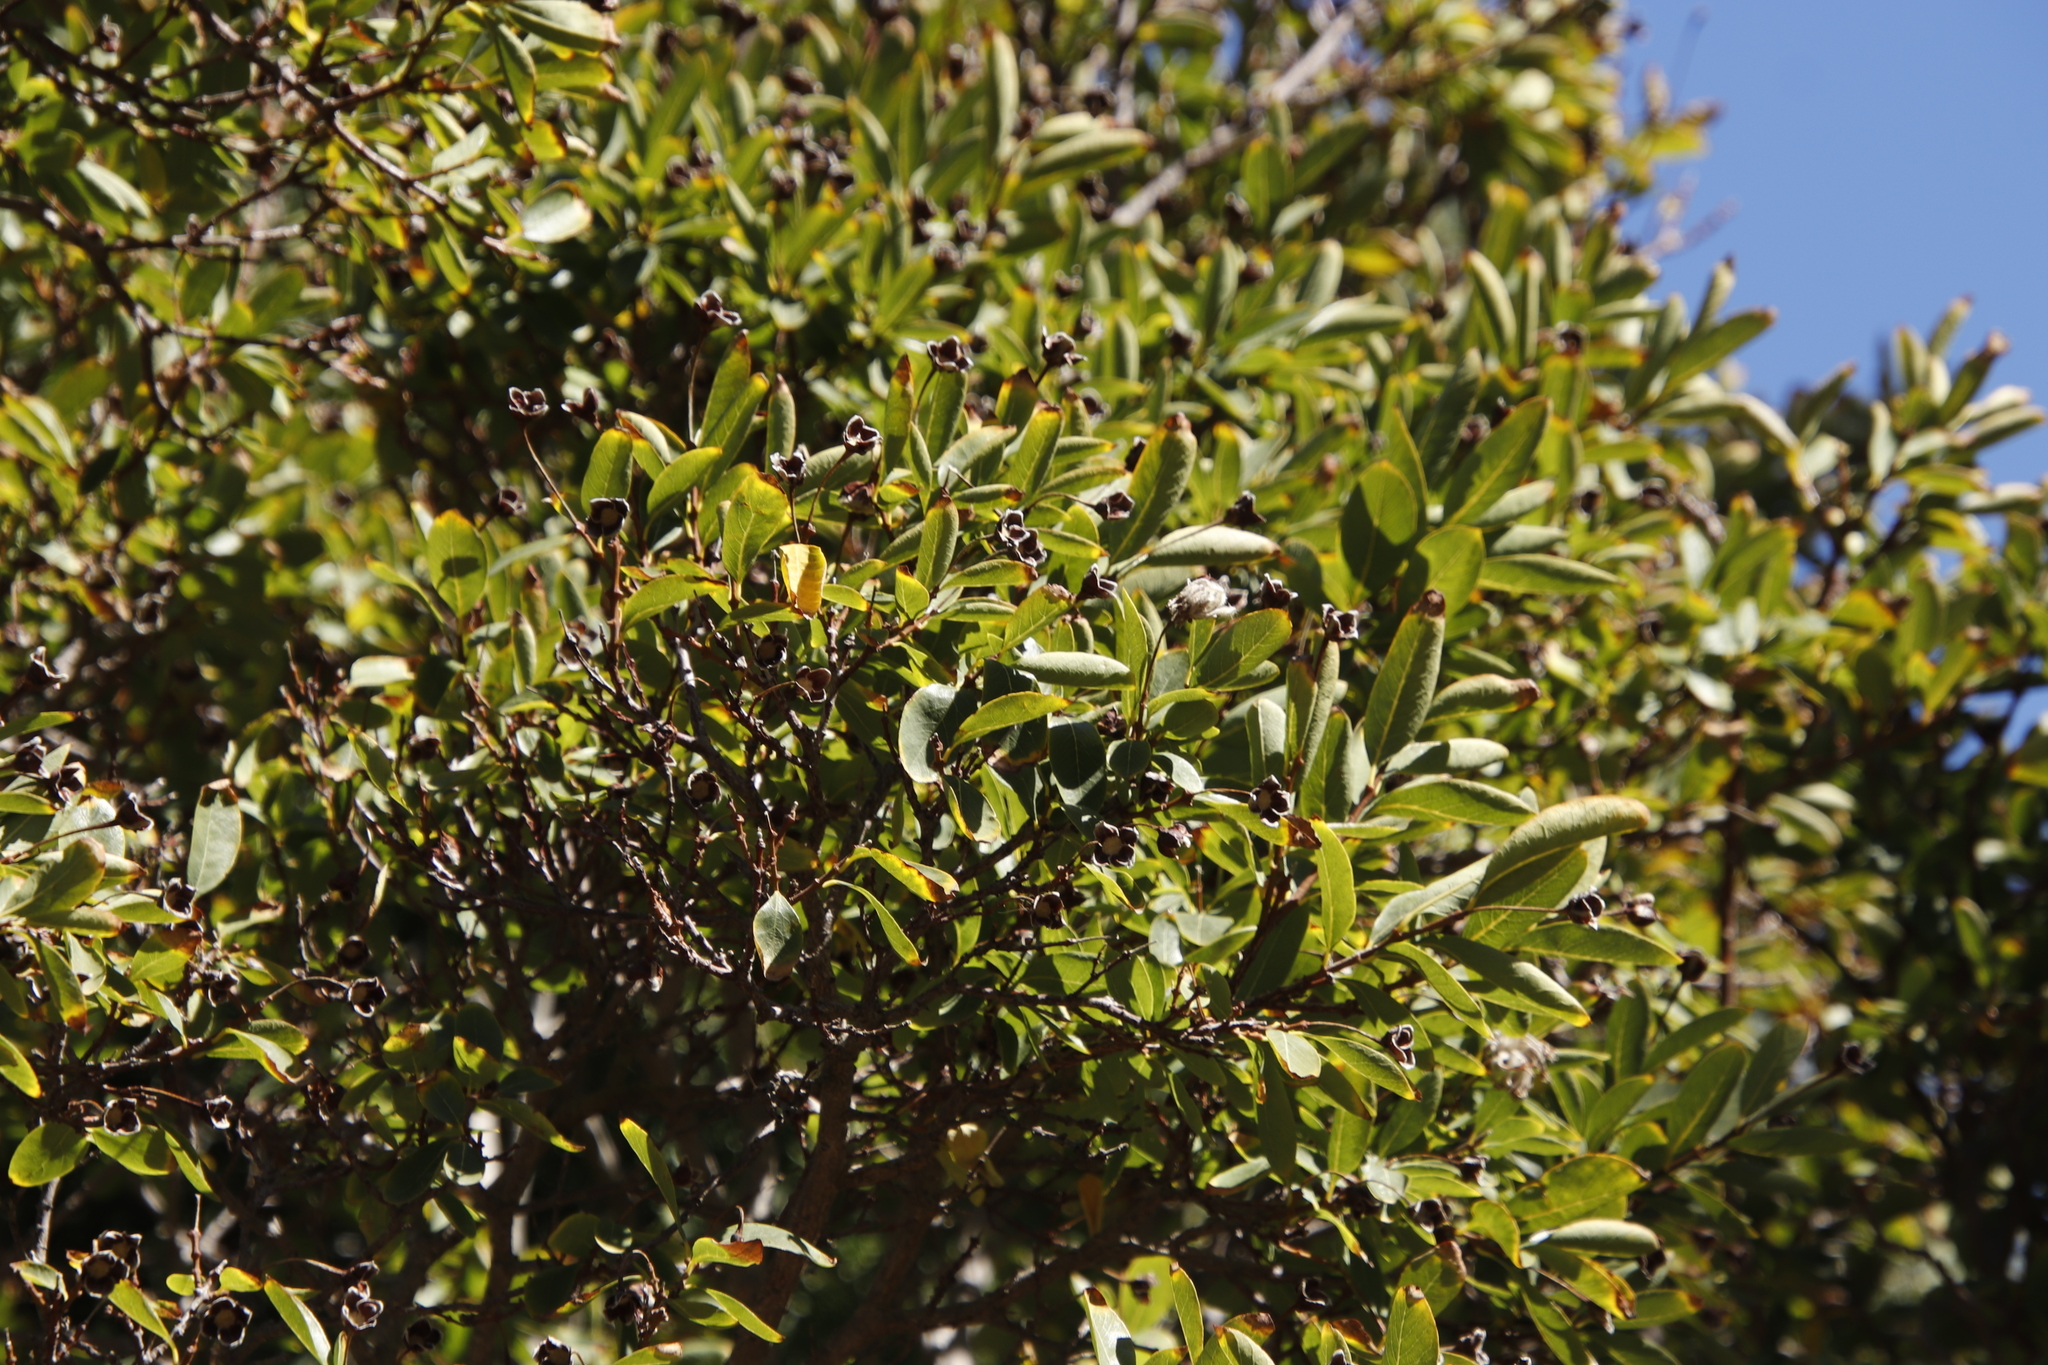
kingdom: Plantae
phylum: Tracheophyta
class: Magnoliopsida
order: Malvales
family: Thymelaeaceae
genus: Dais
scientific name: Dais cotinifolia
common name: Pompon tree
